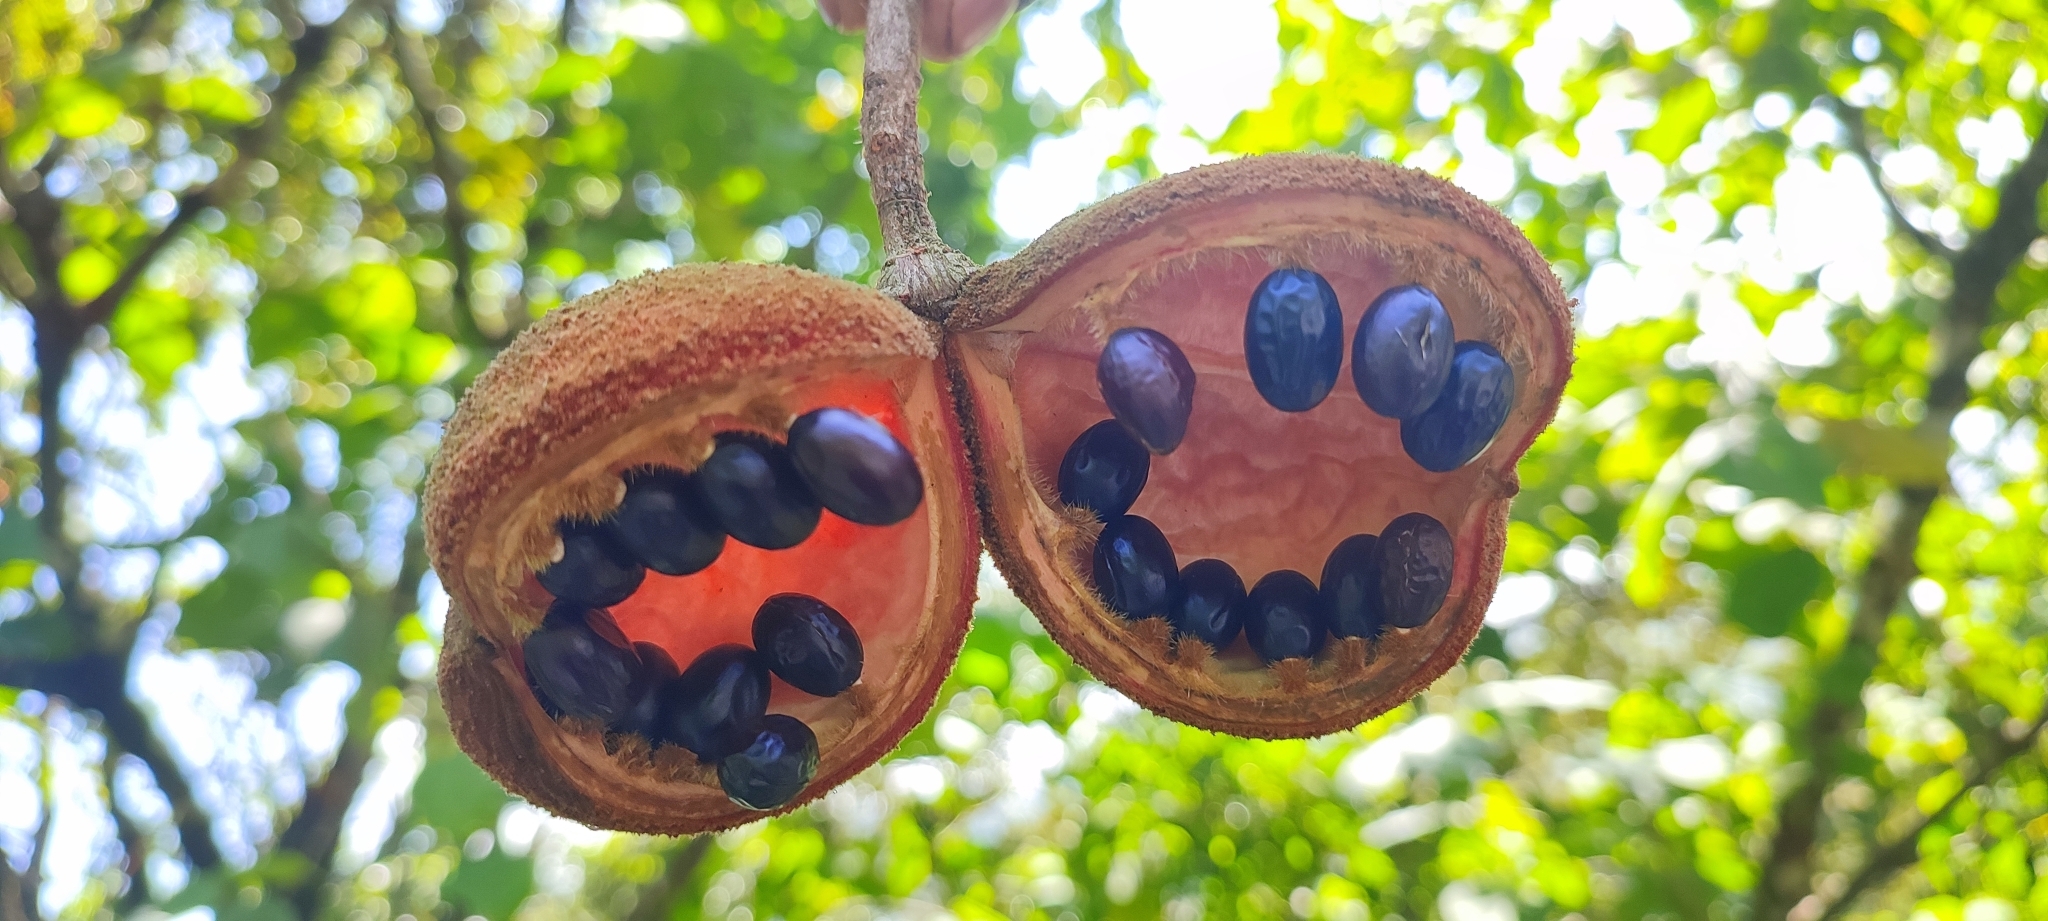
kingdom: Plantae
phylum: Tracheophyta
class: Magnoliopsida
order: Malvales
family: Malvaceae
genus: Sterculia
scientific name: Sterculia guttata
